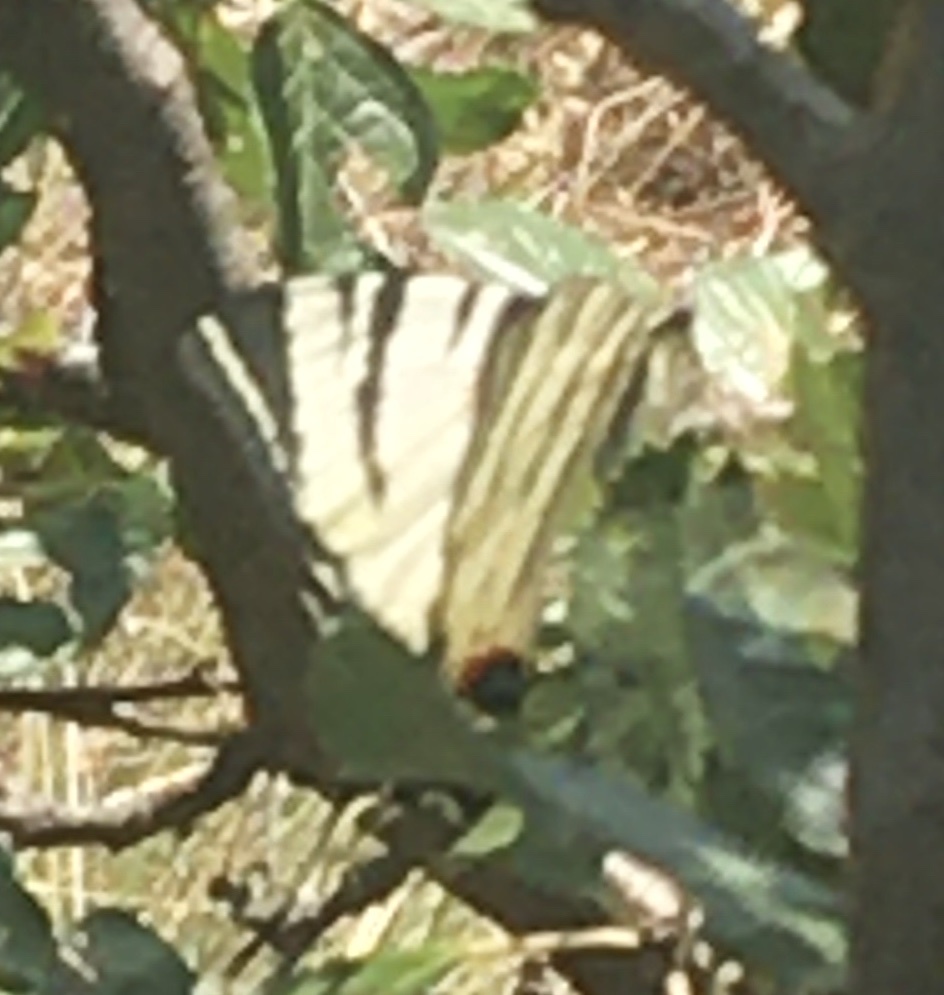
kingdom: Animalia
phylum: Arthropoda
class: Insecta
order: Lepidoptera
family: Papilionidae
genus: Iphiclides
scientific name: Iphiclides podalirius
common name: Scarce swallowtail
